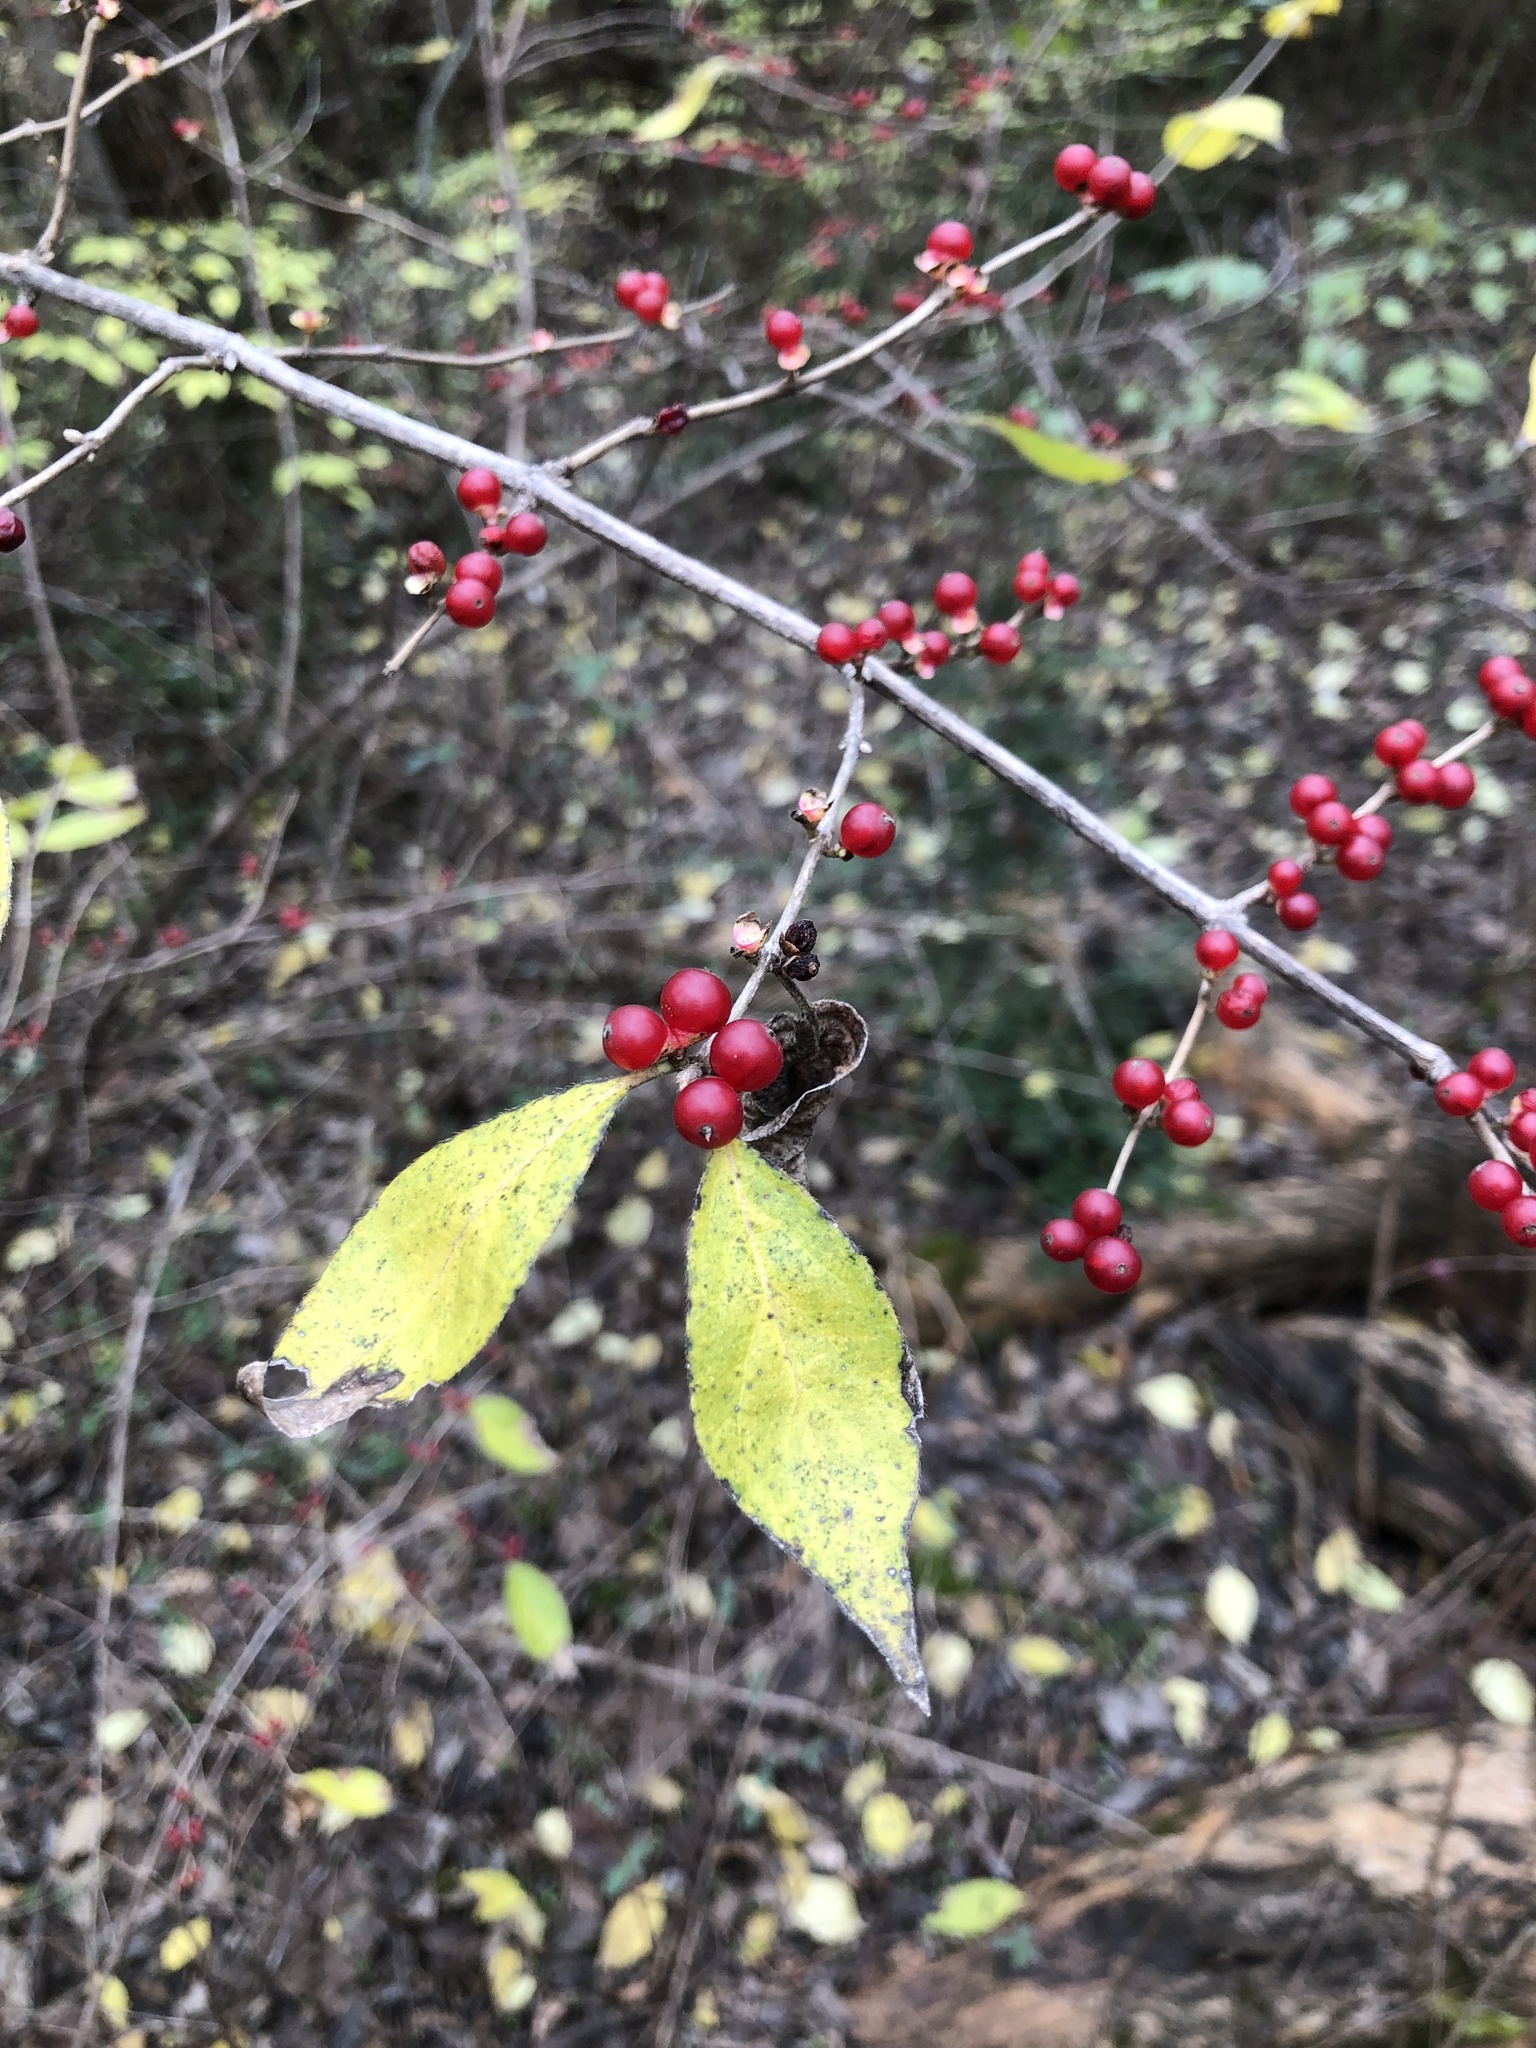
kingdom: Plantae
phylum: Tracheophyta
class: Magnoliopsida
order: Dipsacales
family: Caprifoliaceae
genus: Lonicera
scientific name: Lonicera maackii
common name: Amur honeysuckle
